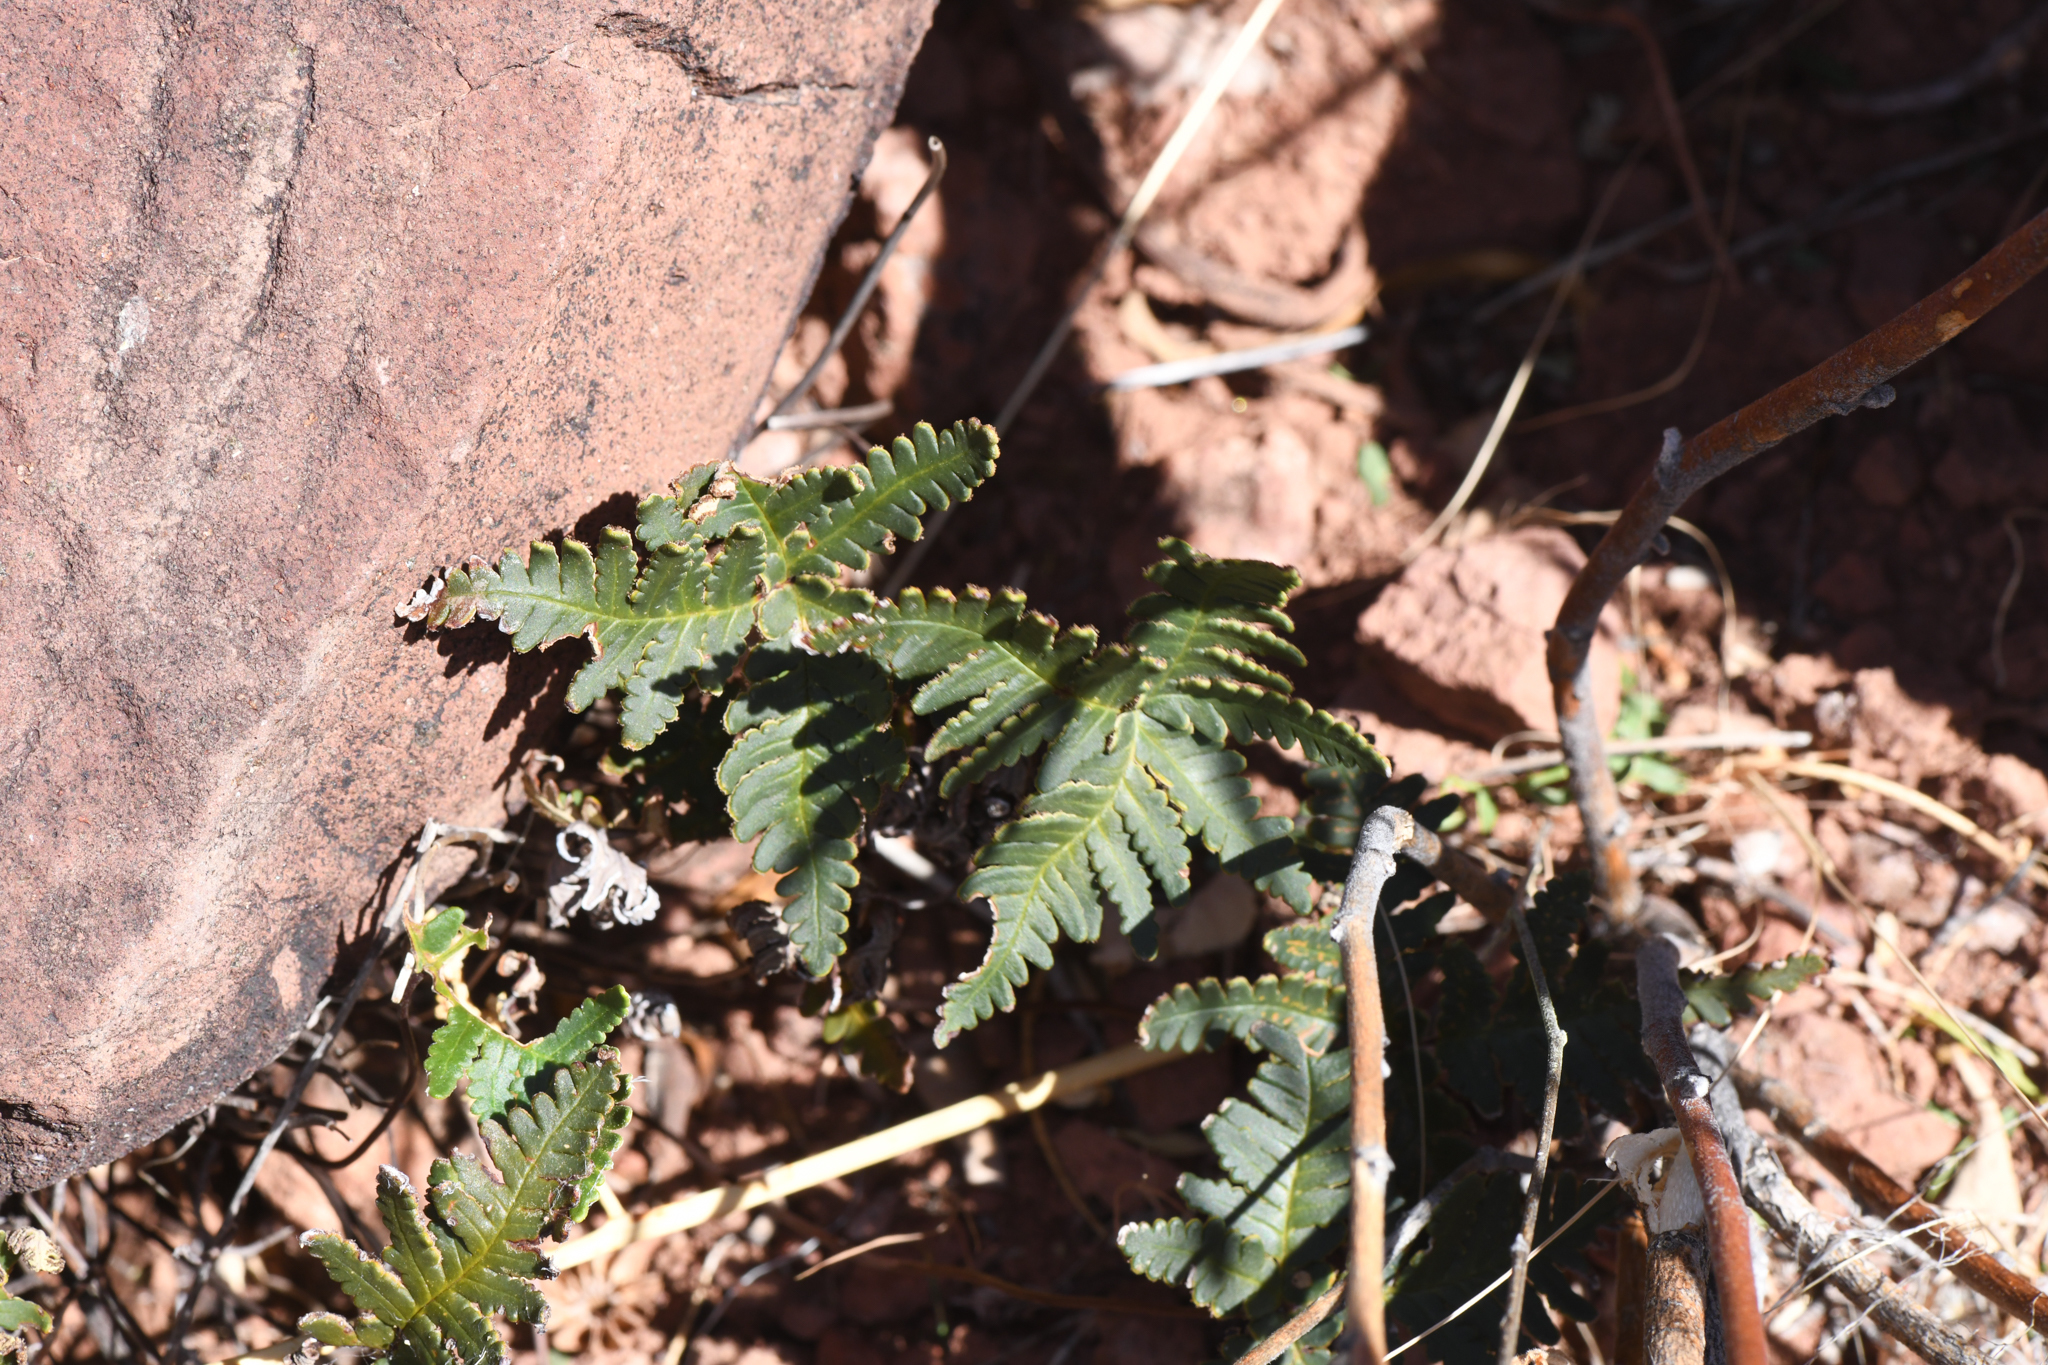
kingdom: Plantae
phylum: Tracheophyta
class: Polypodiopsida
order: Polypodiales
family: Pteridaceae
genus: Notholaena
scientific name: Notholaena standleyi
